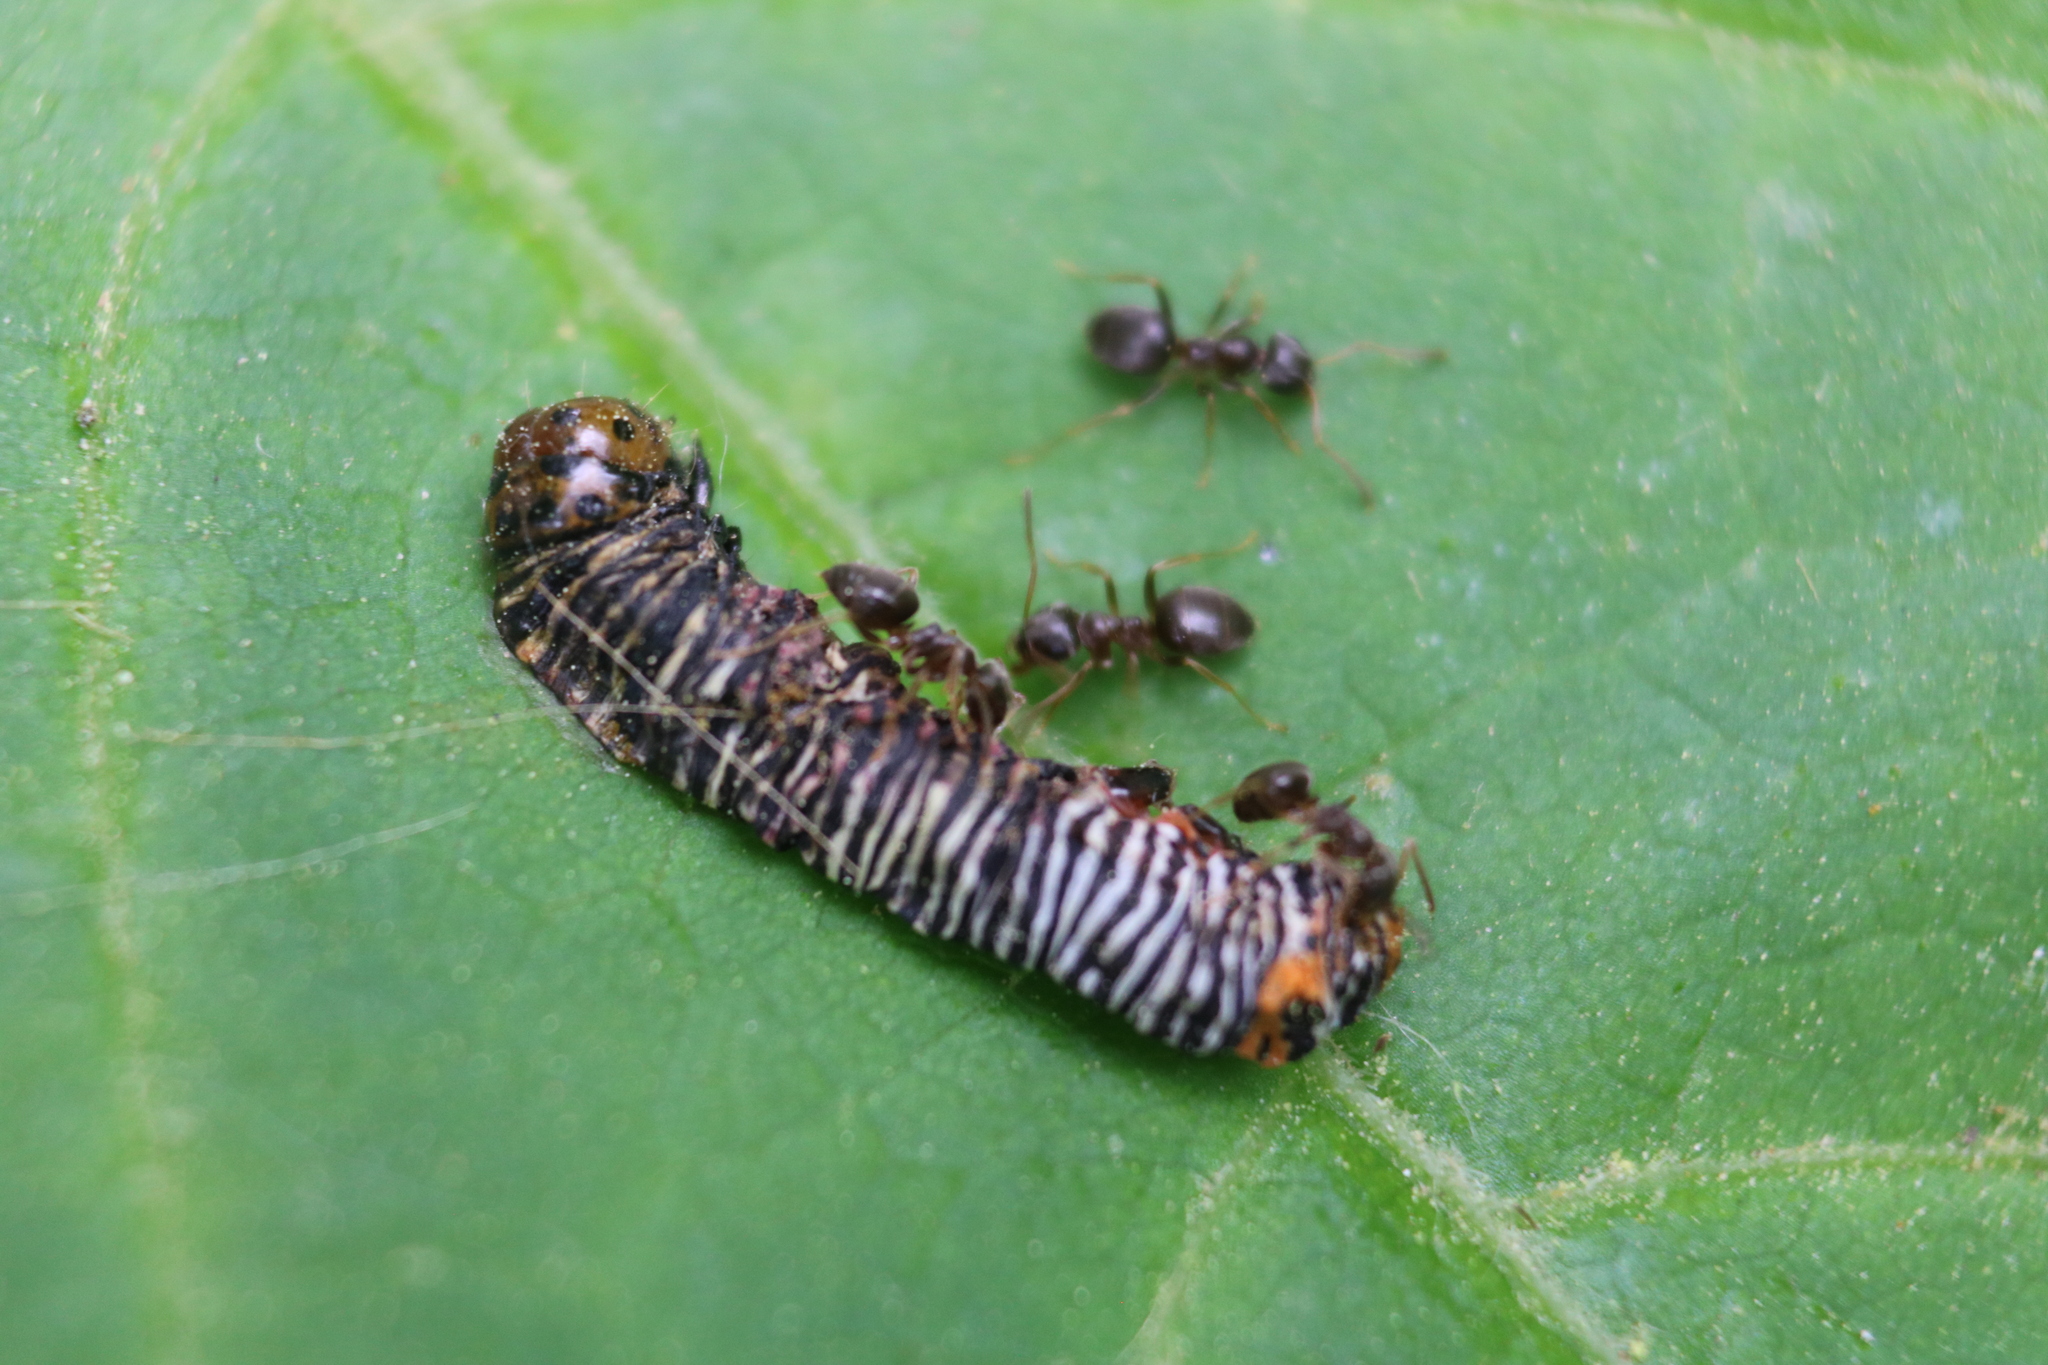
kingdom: Animalia
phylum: Arthropoda
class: Insecta
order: Lepidoptera
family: Noctuidae
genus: Psychomorpha
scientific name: Psychomorpha epimenis
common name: Grapevine epimenis moth
